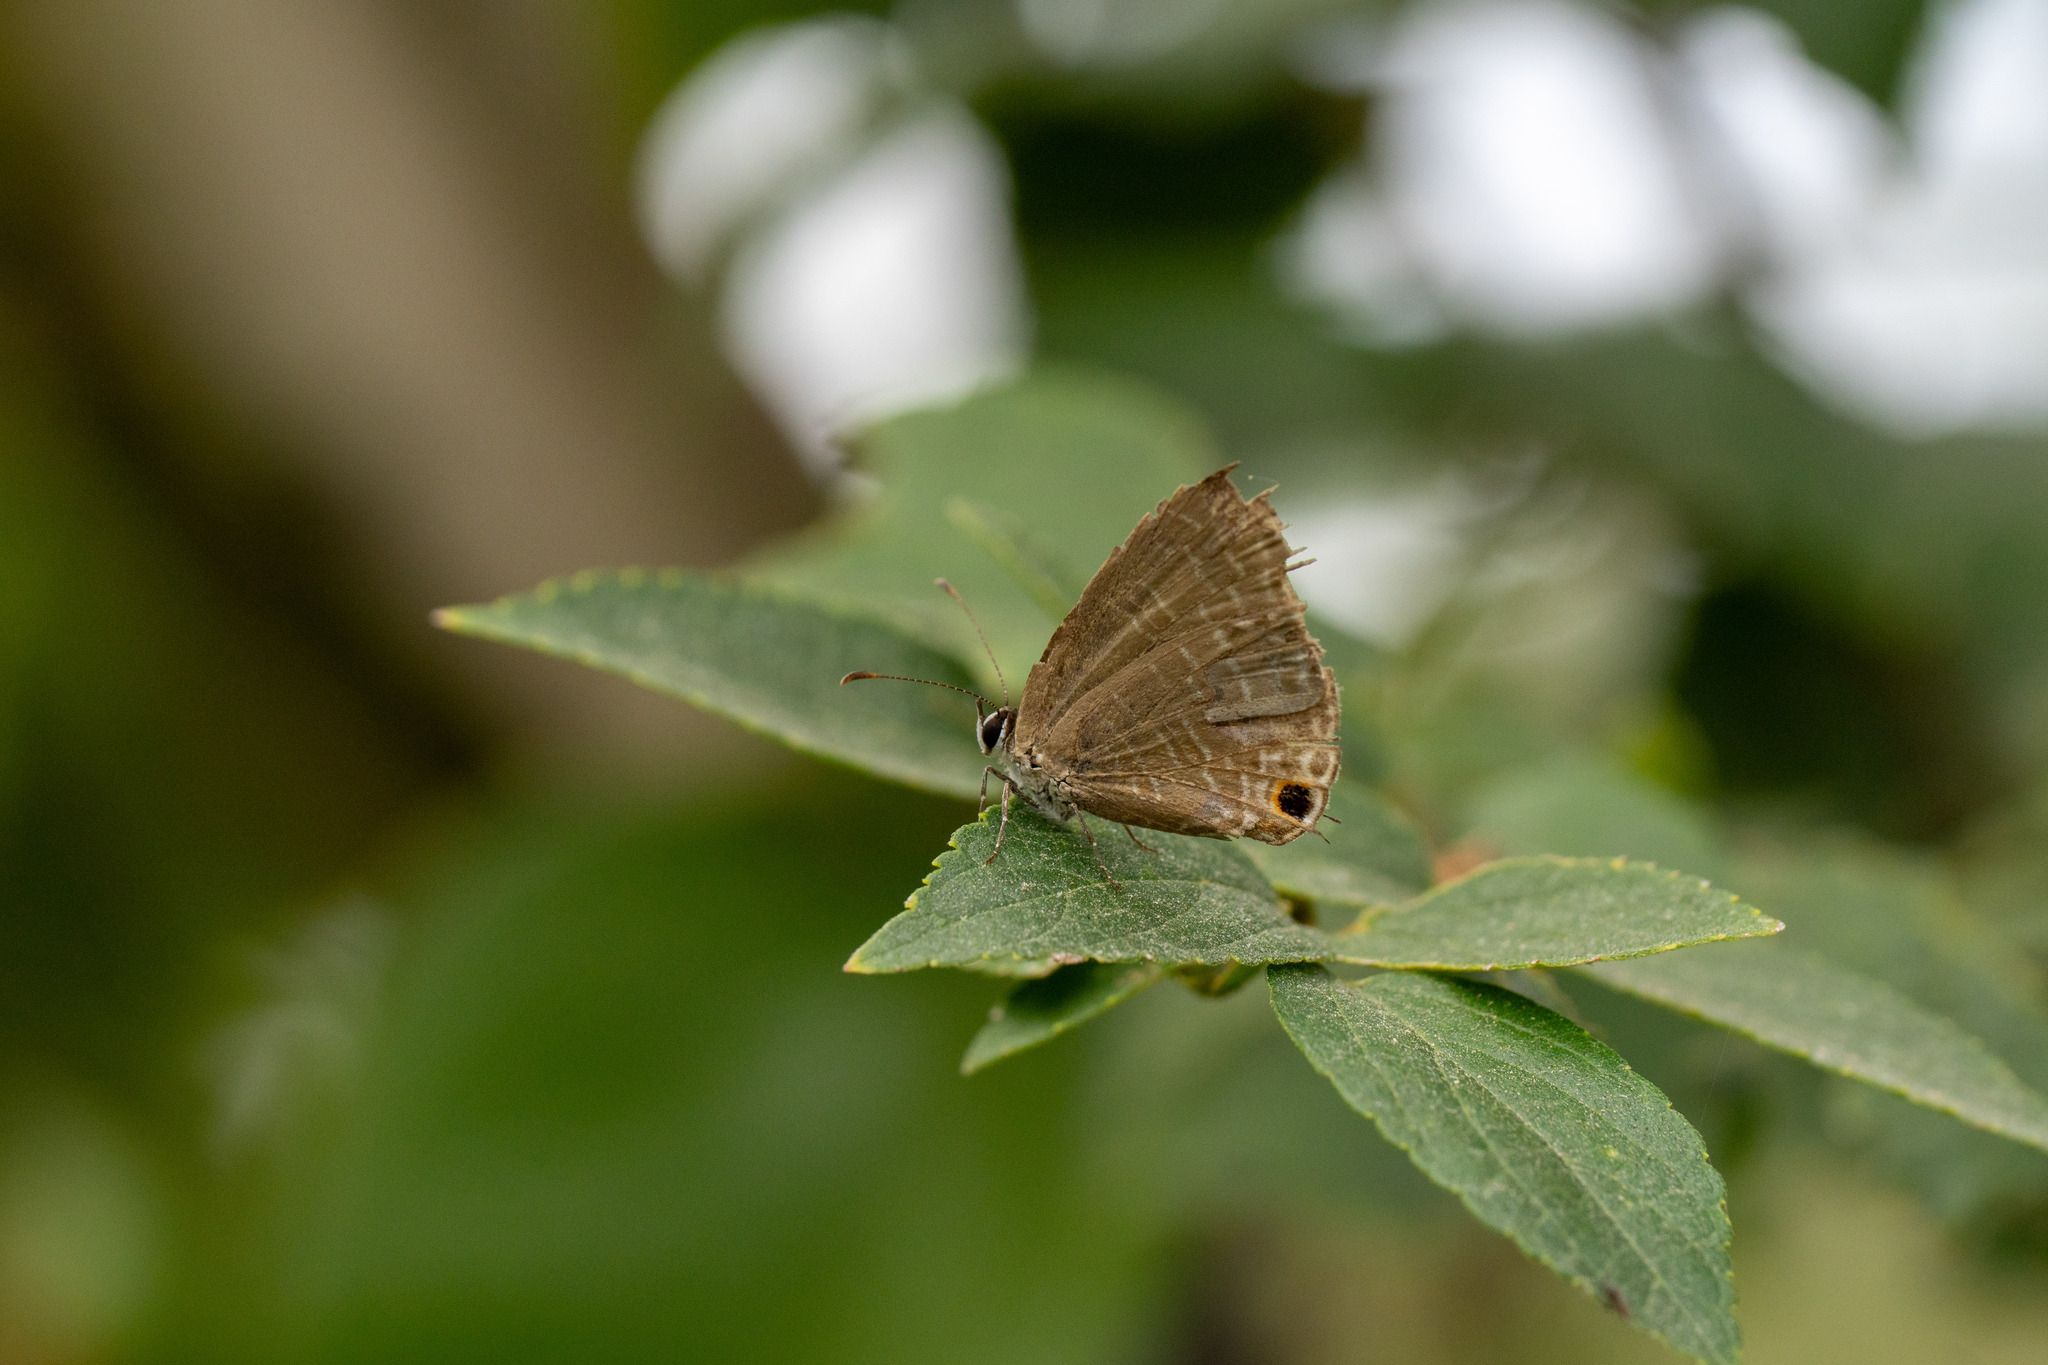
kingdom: Animalia
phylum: Arthropoda
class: Insecta
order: Lepidoptera
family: Lycaenidae
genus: Jamides
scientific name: Jamides bochus
